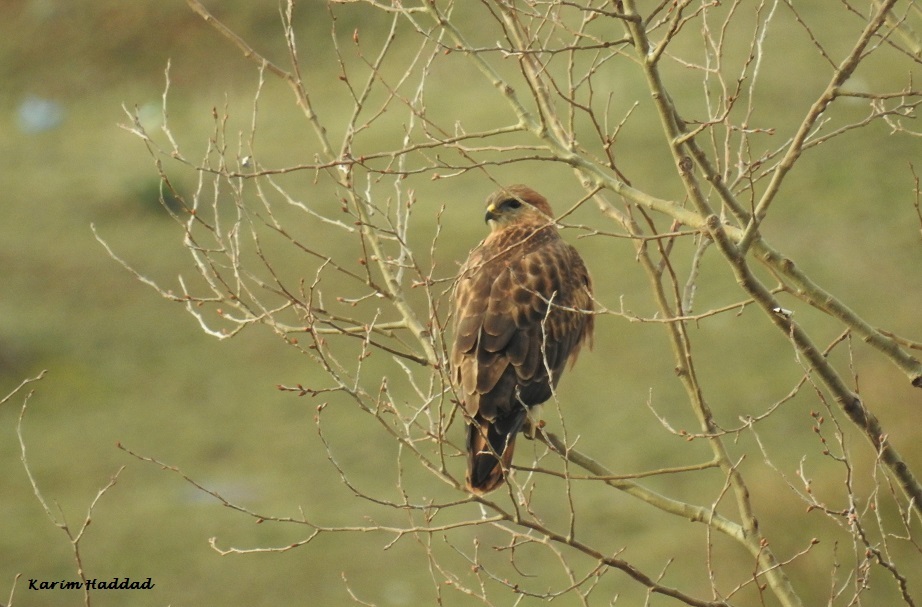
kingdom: Animalia
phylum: Chordata
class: Aves
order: Accipitriformes
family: Accipitridae
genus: Buteo
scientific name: Buteo rufinus
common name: Long-legged buzzard
